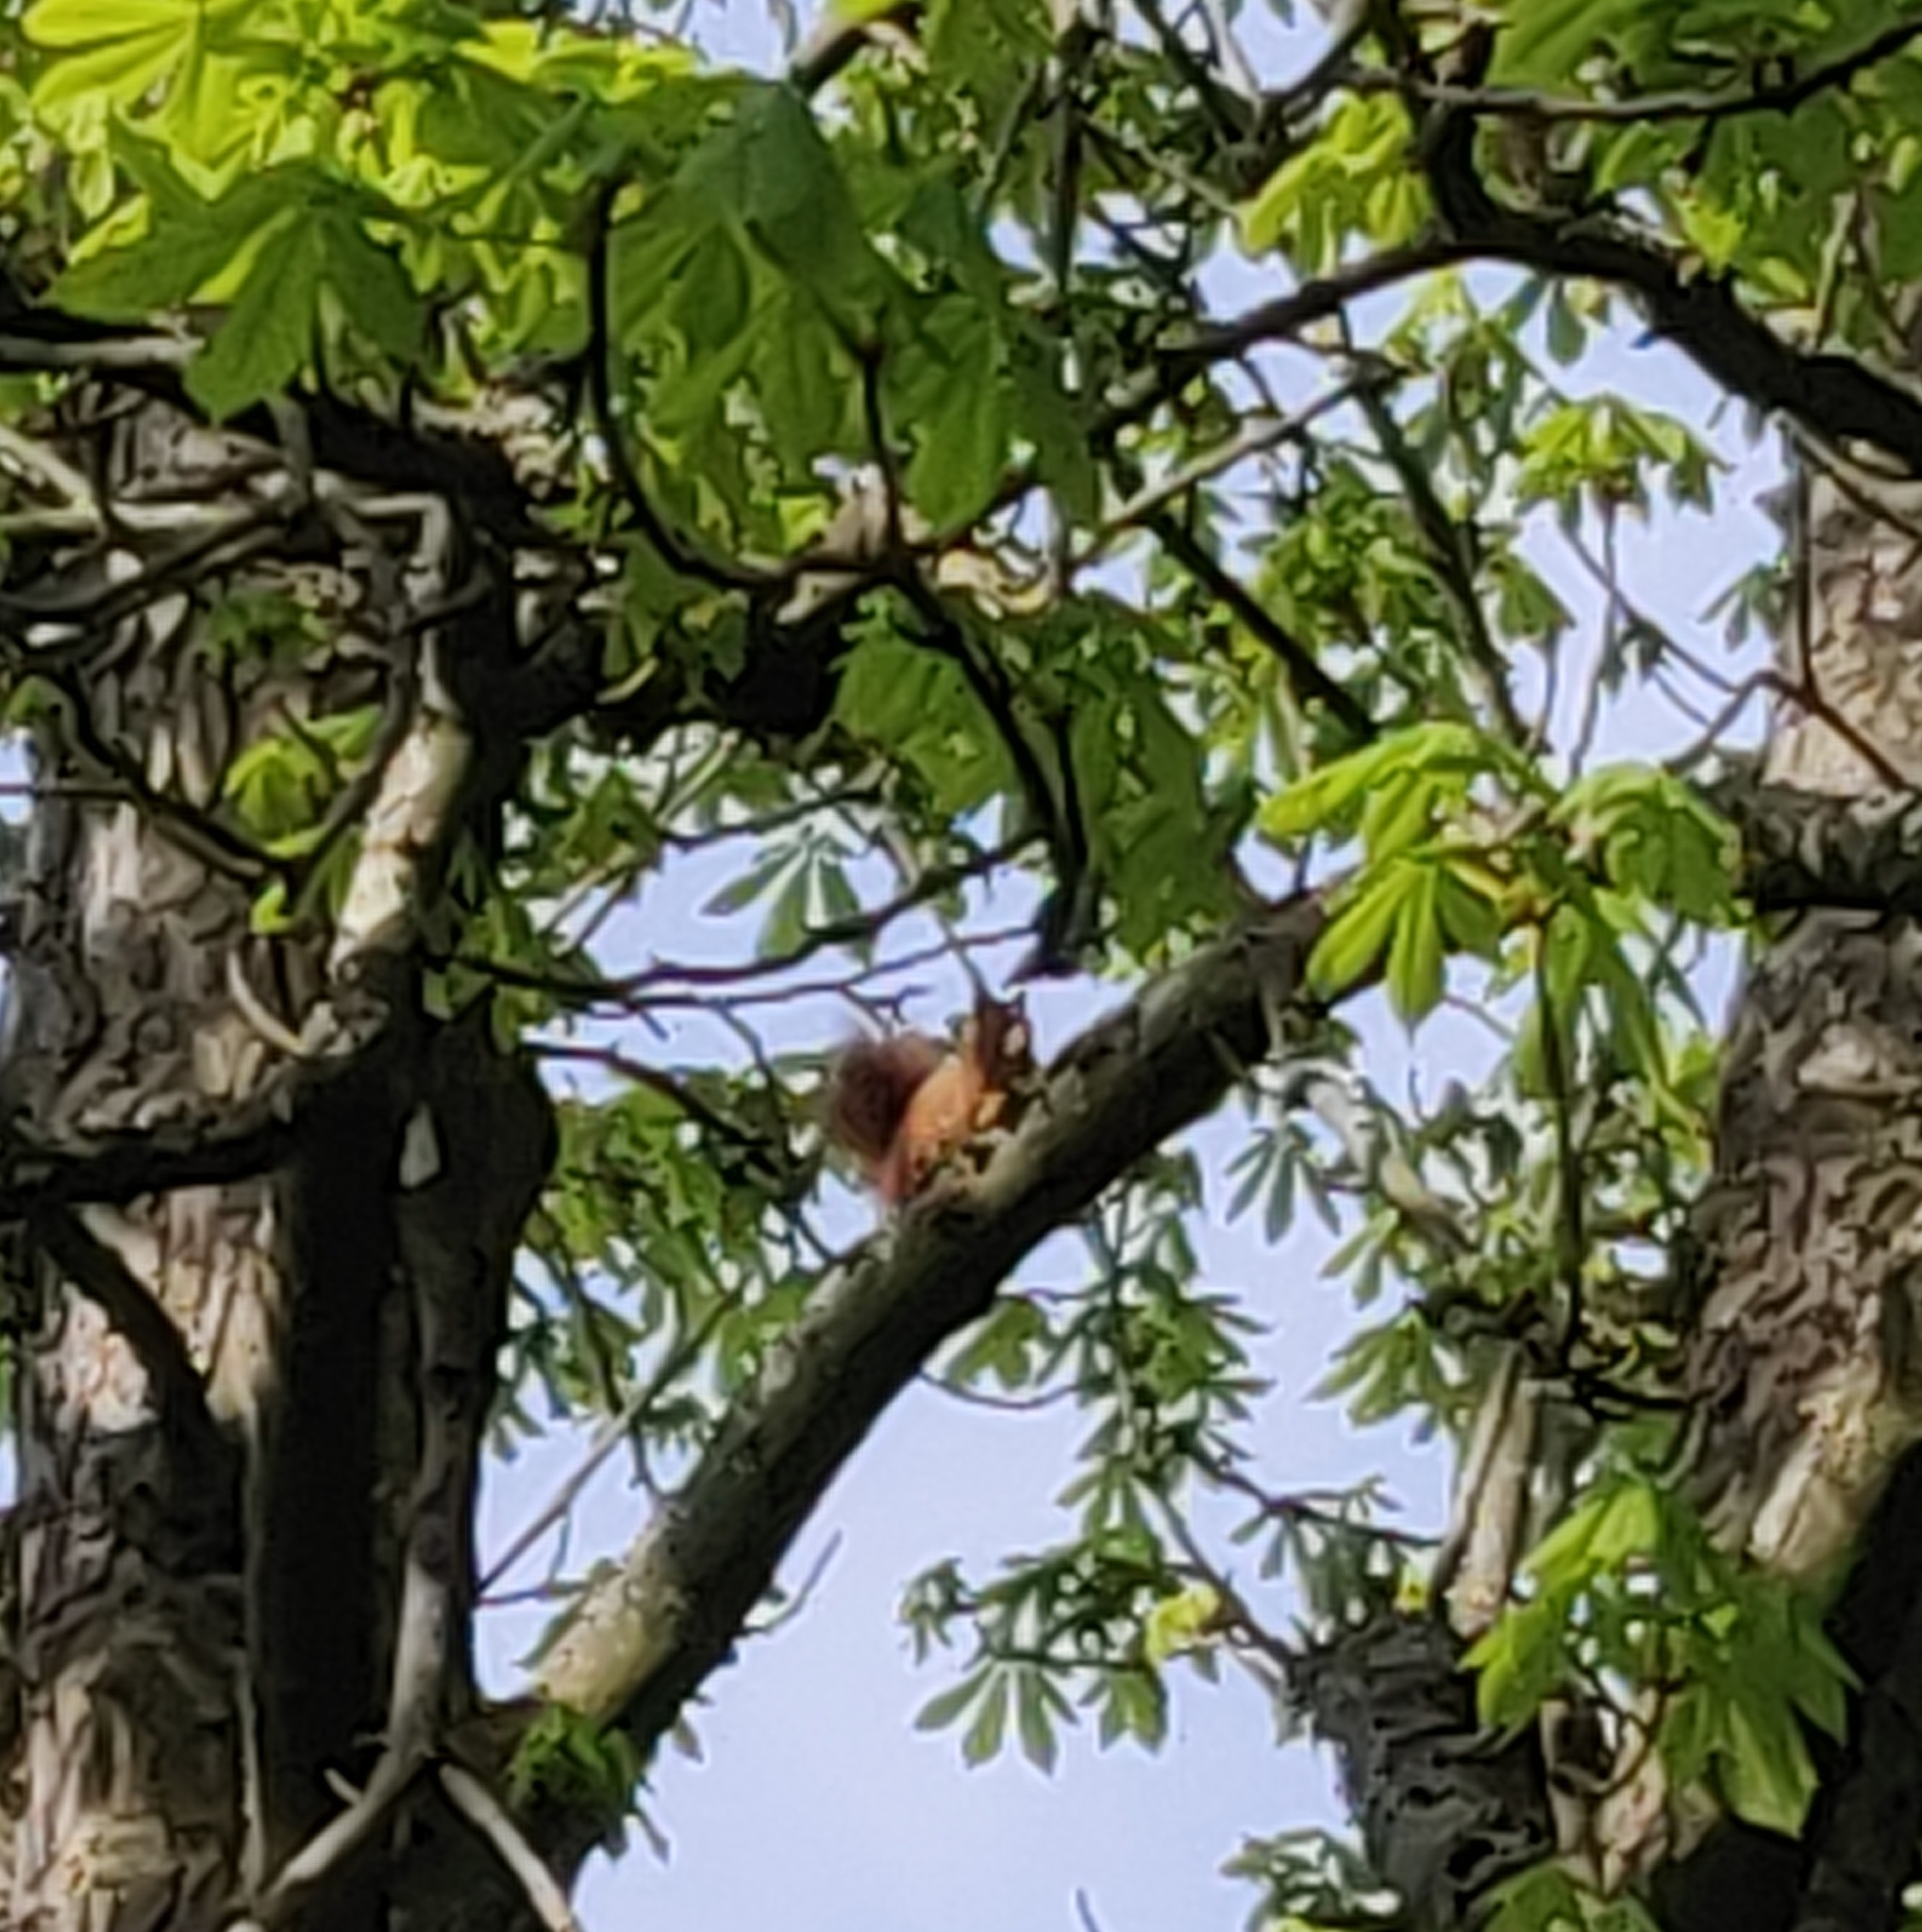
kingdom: Animalia
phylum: Chordata
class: Mammalia
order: Rodentia
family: Sciuridae
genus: Sciurus
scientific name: Sciurus vulgaris
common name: Eurasian red squirrel
